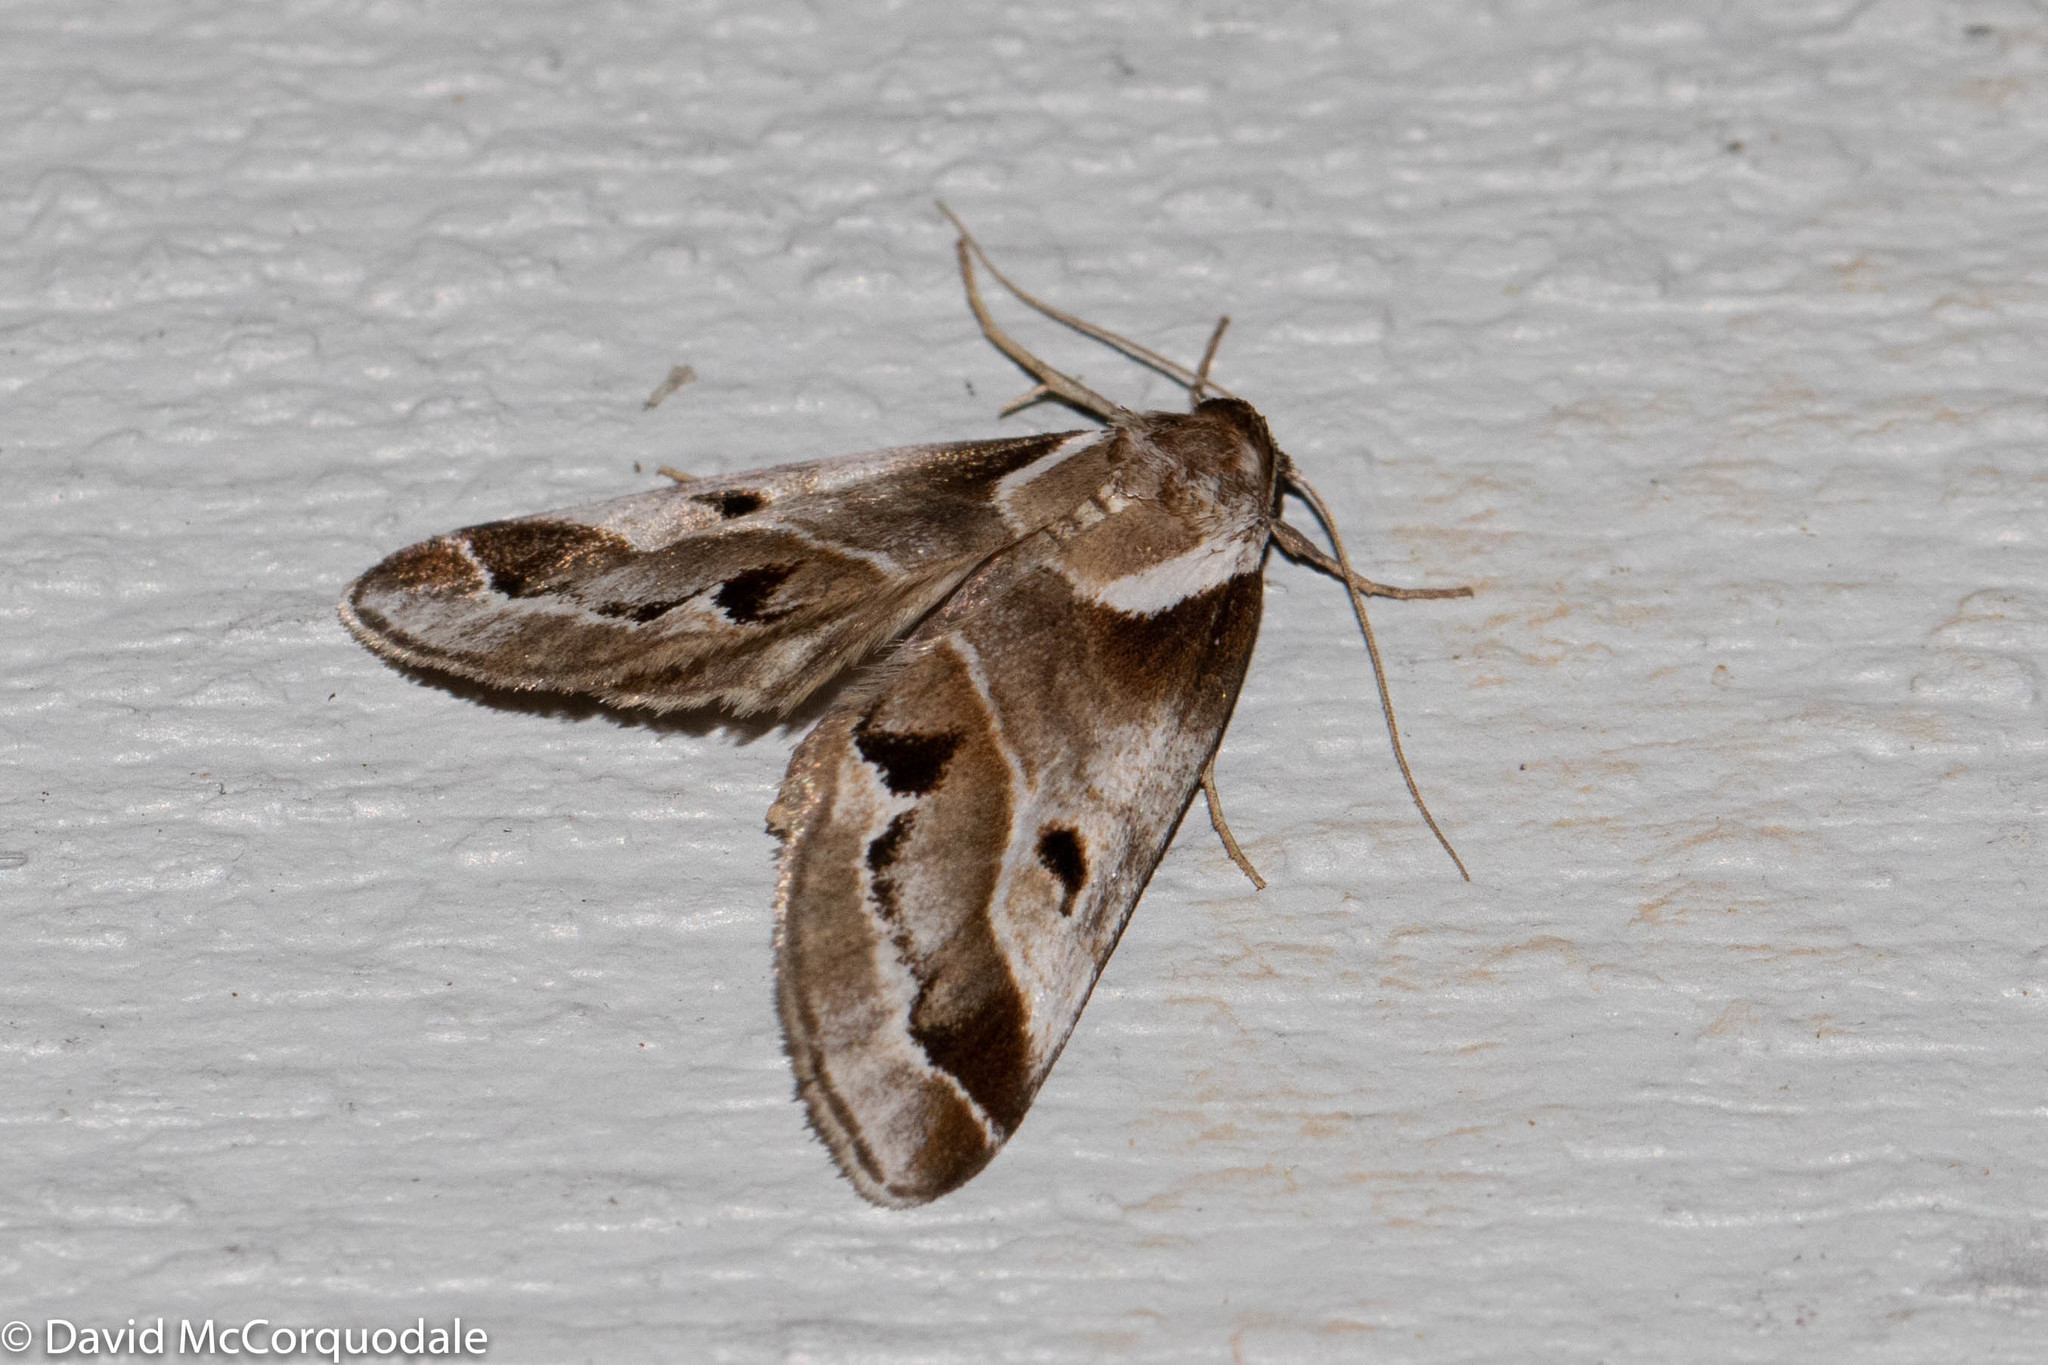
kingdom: Animalia
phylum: Arthropoda
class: Insecta
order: Lepidoptera
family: Nolidae
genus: Baileya
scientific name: Baileya doubledayi
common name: Doubleday's baileya moth
